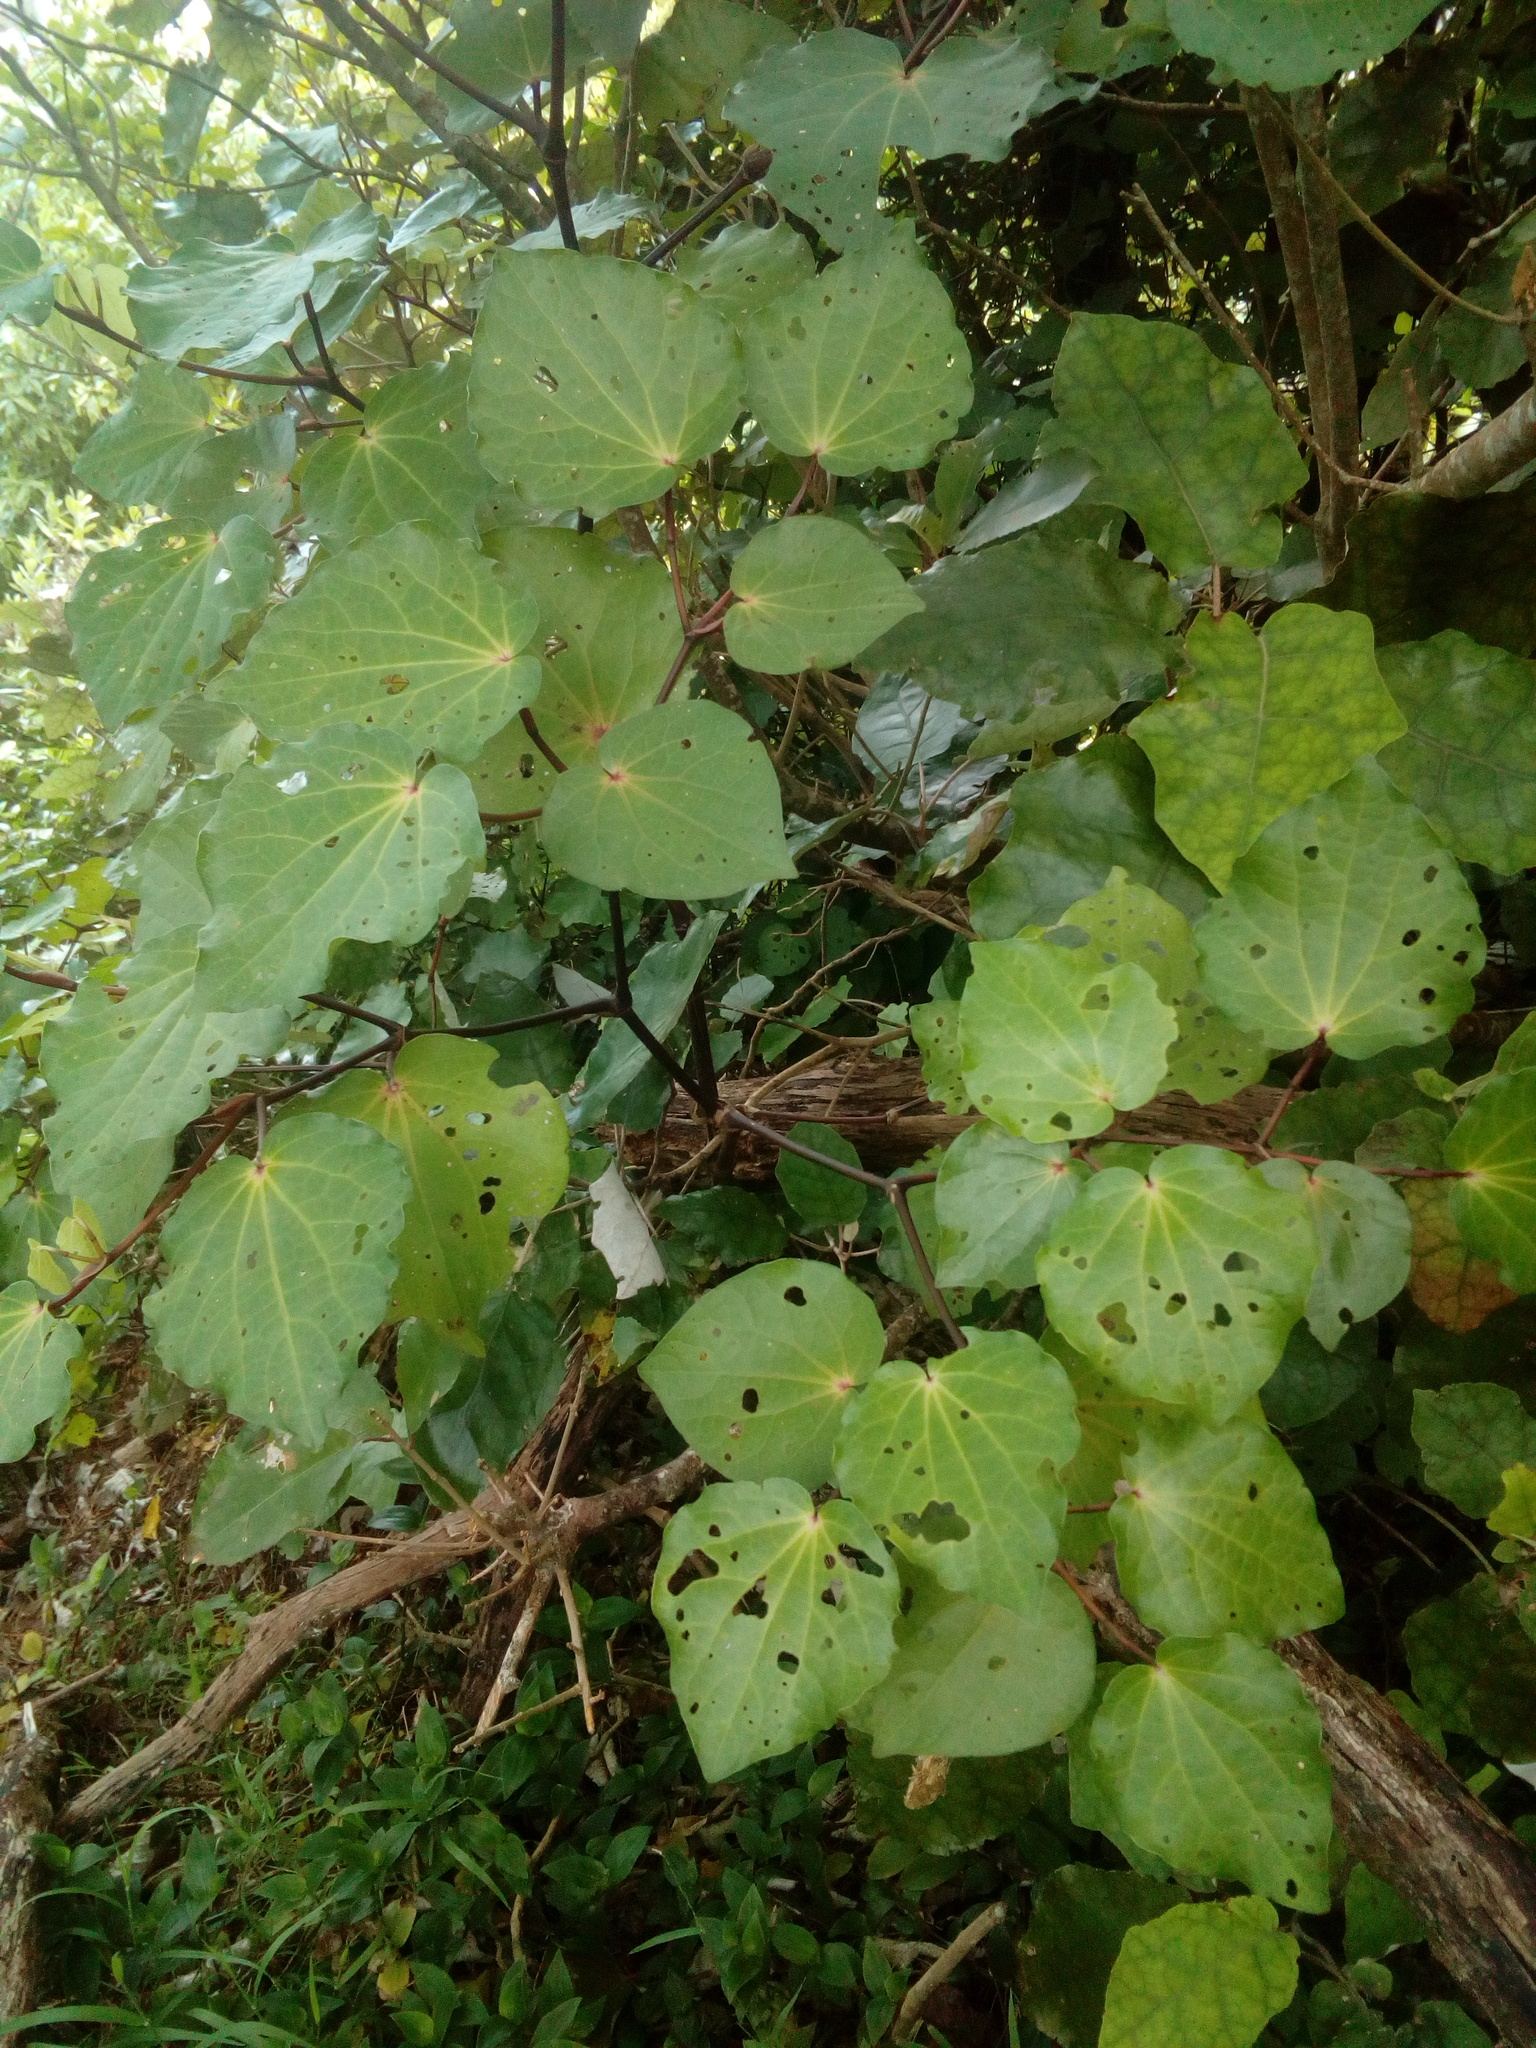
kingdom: Plantae
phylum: Tracheophyta
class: Magnoliopsida
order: Piperales
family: Piperaceae
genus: Macropiper
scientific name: Macropiper excelsum
